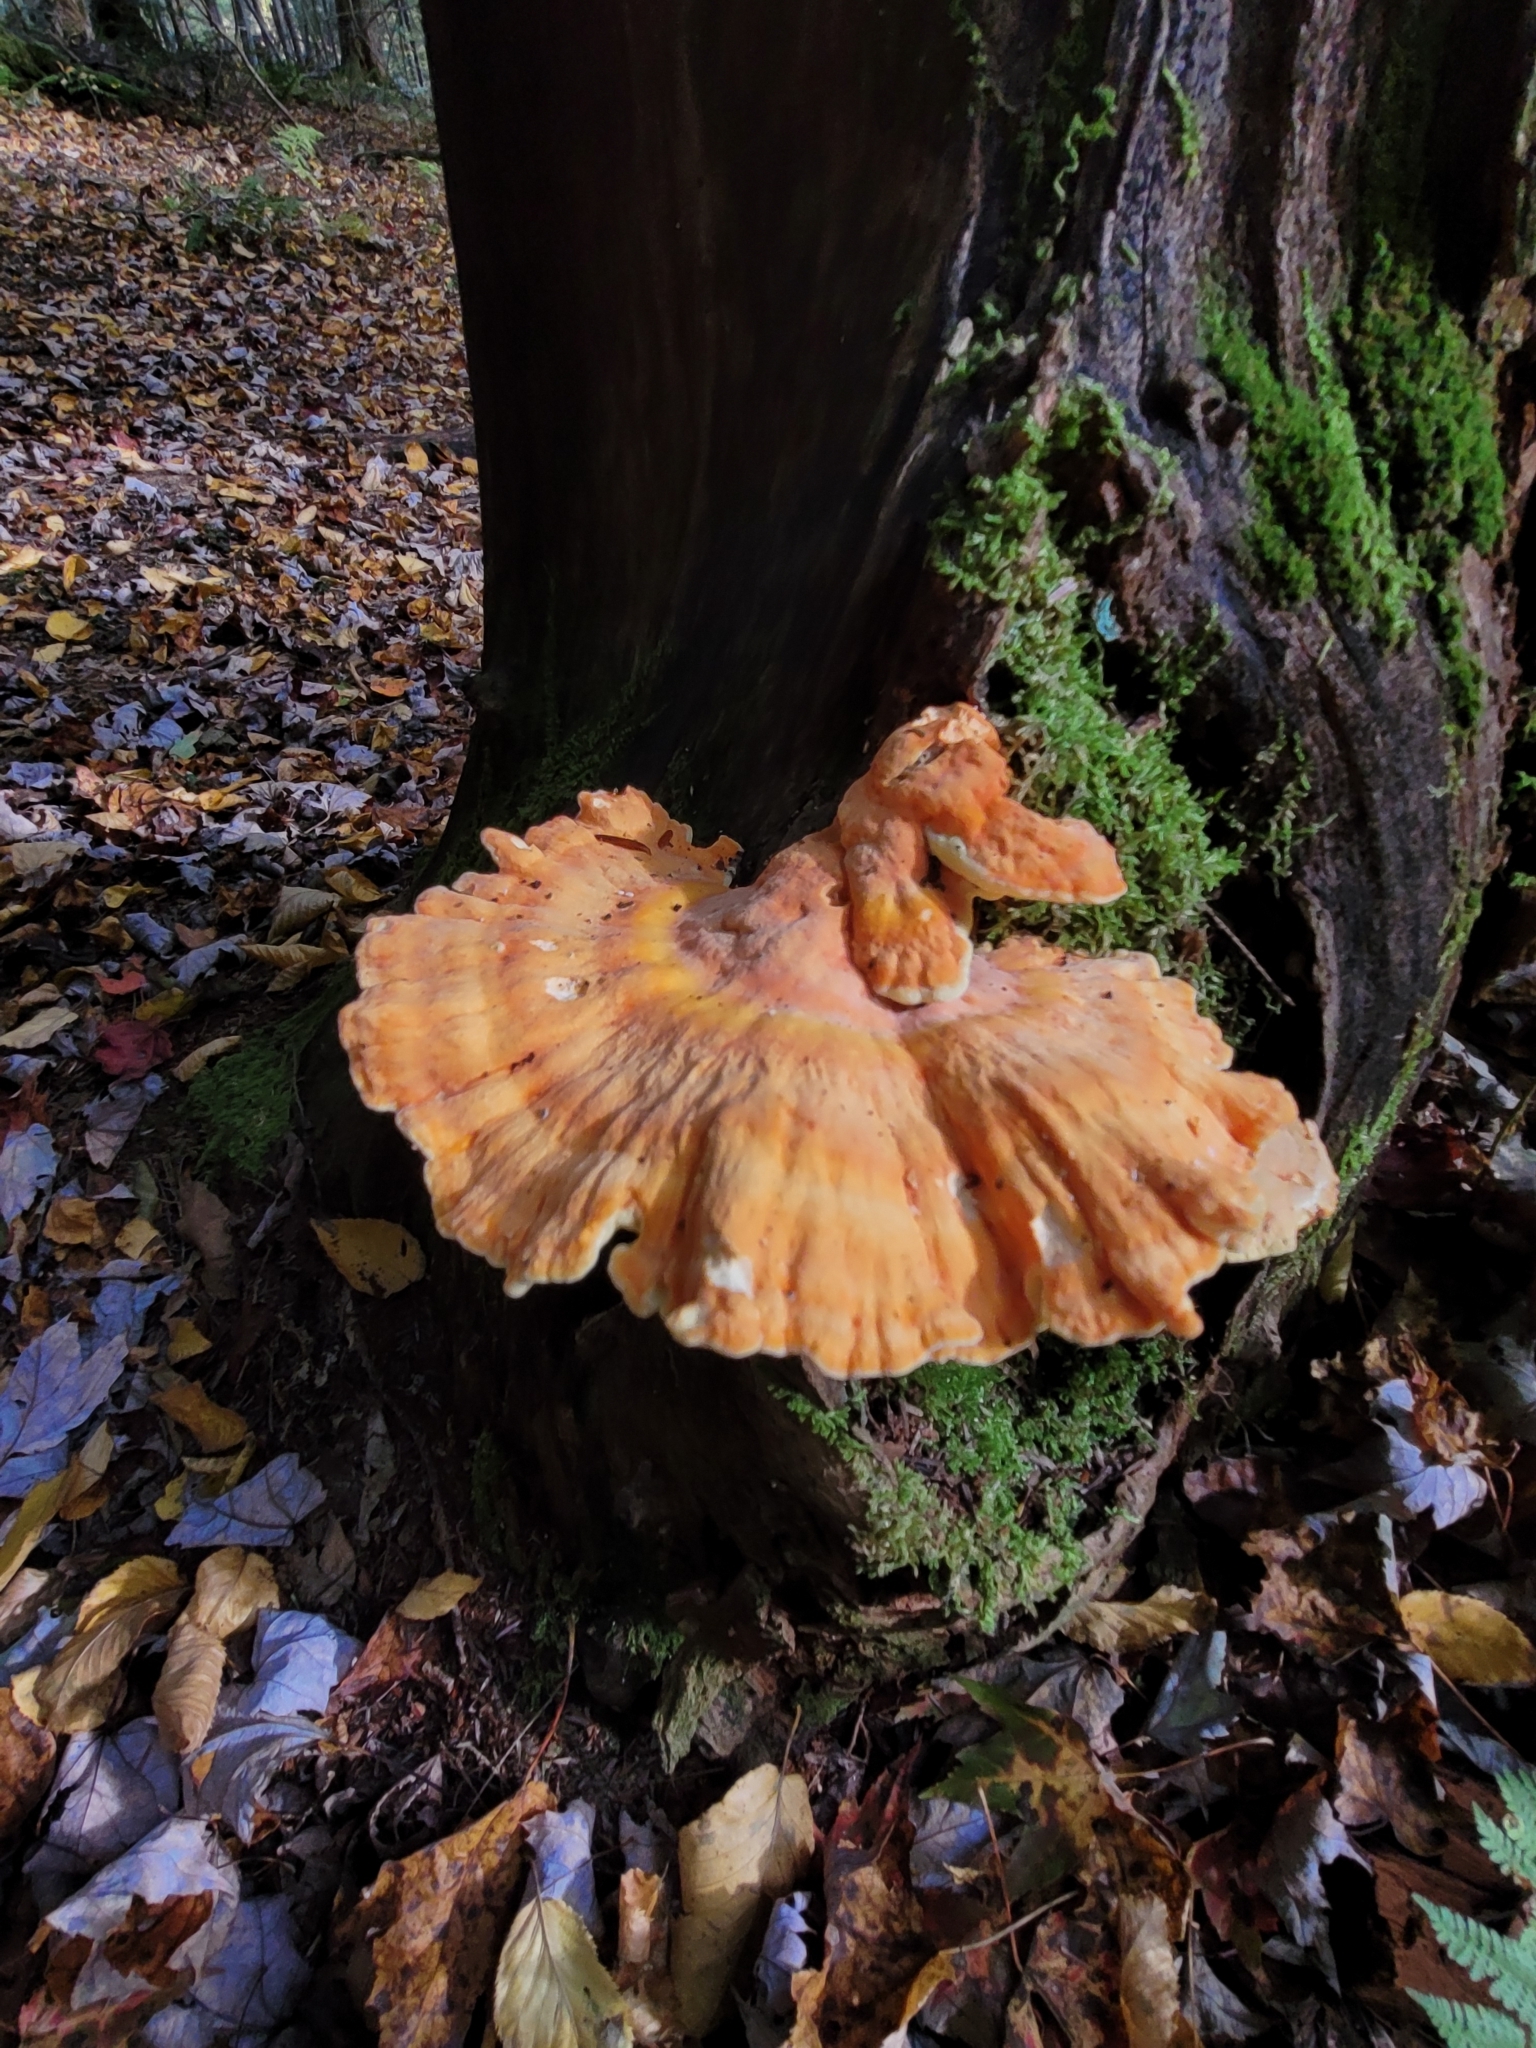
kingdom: Fungi
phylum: Basidiomycota
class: Agaricomycetes
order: Polyporales
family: Laetiporaceae
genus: Laetiporus
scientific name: Laetiporus sulphureus
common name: Chicken of the woods
